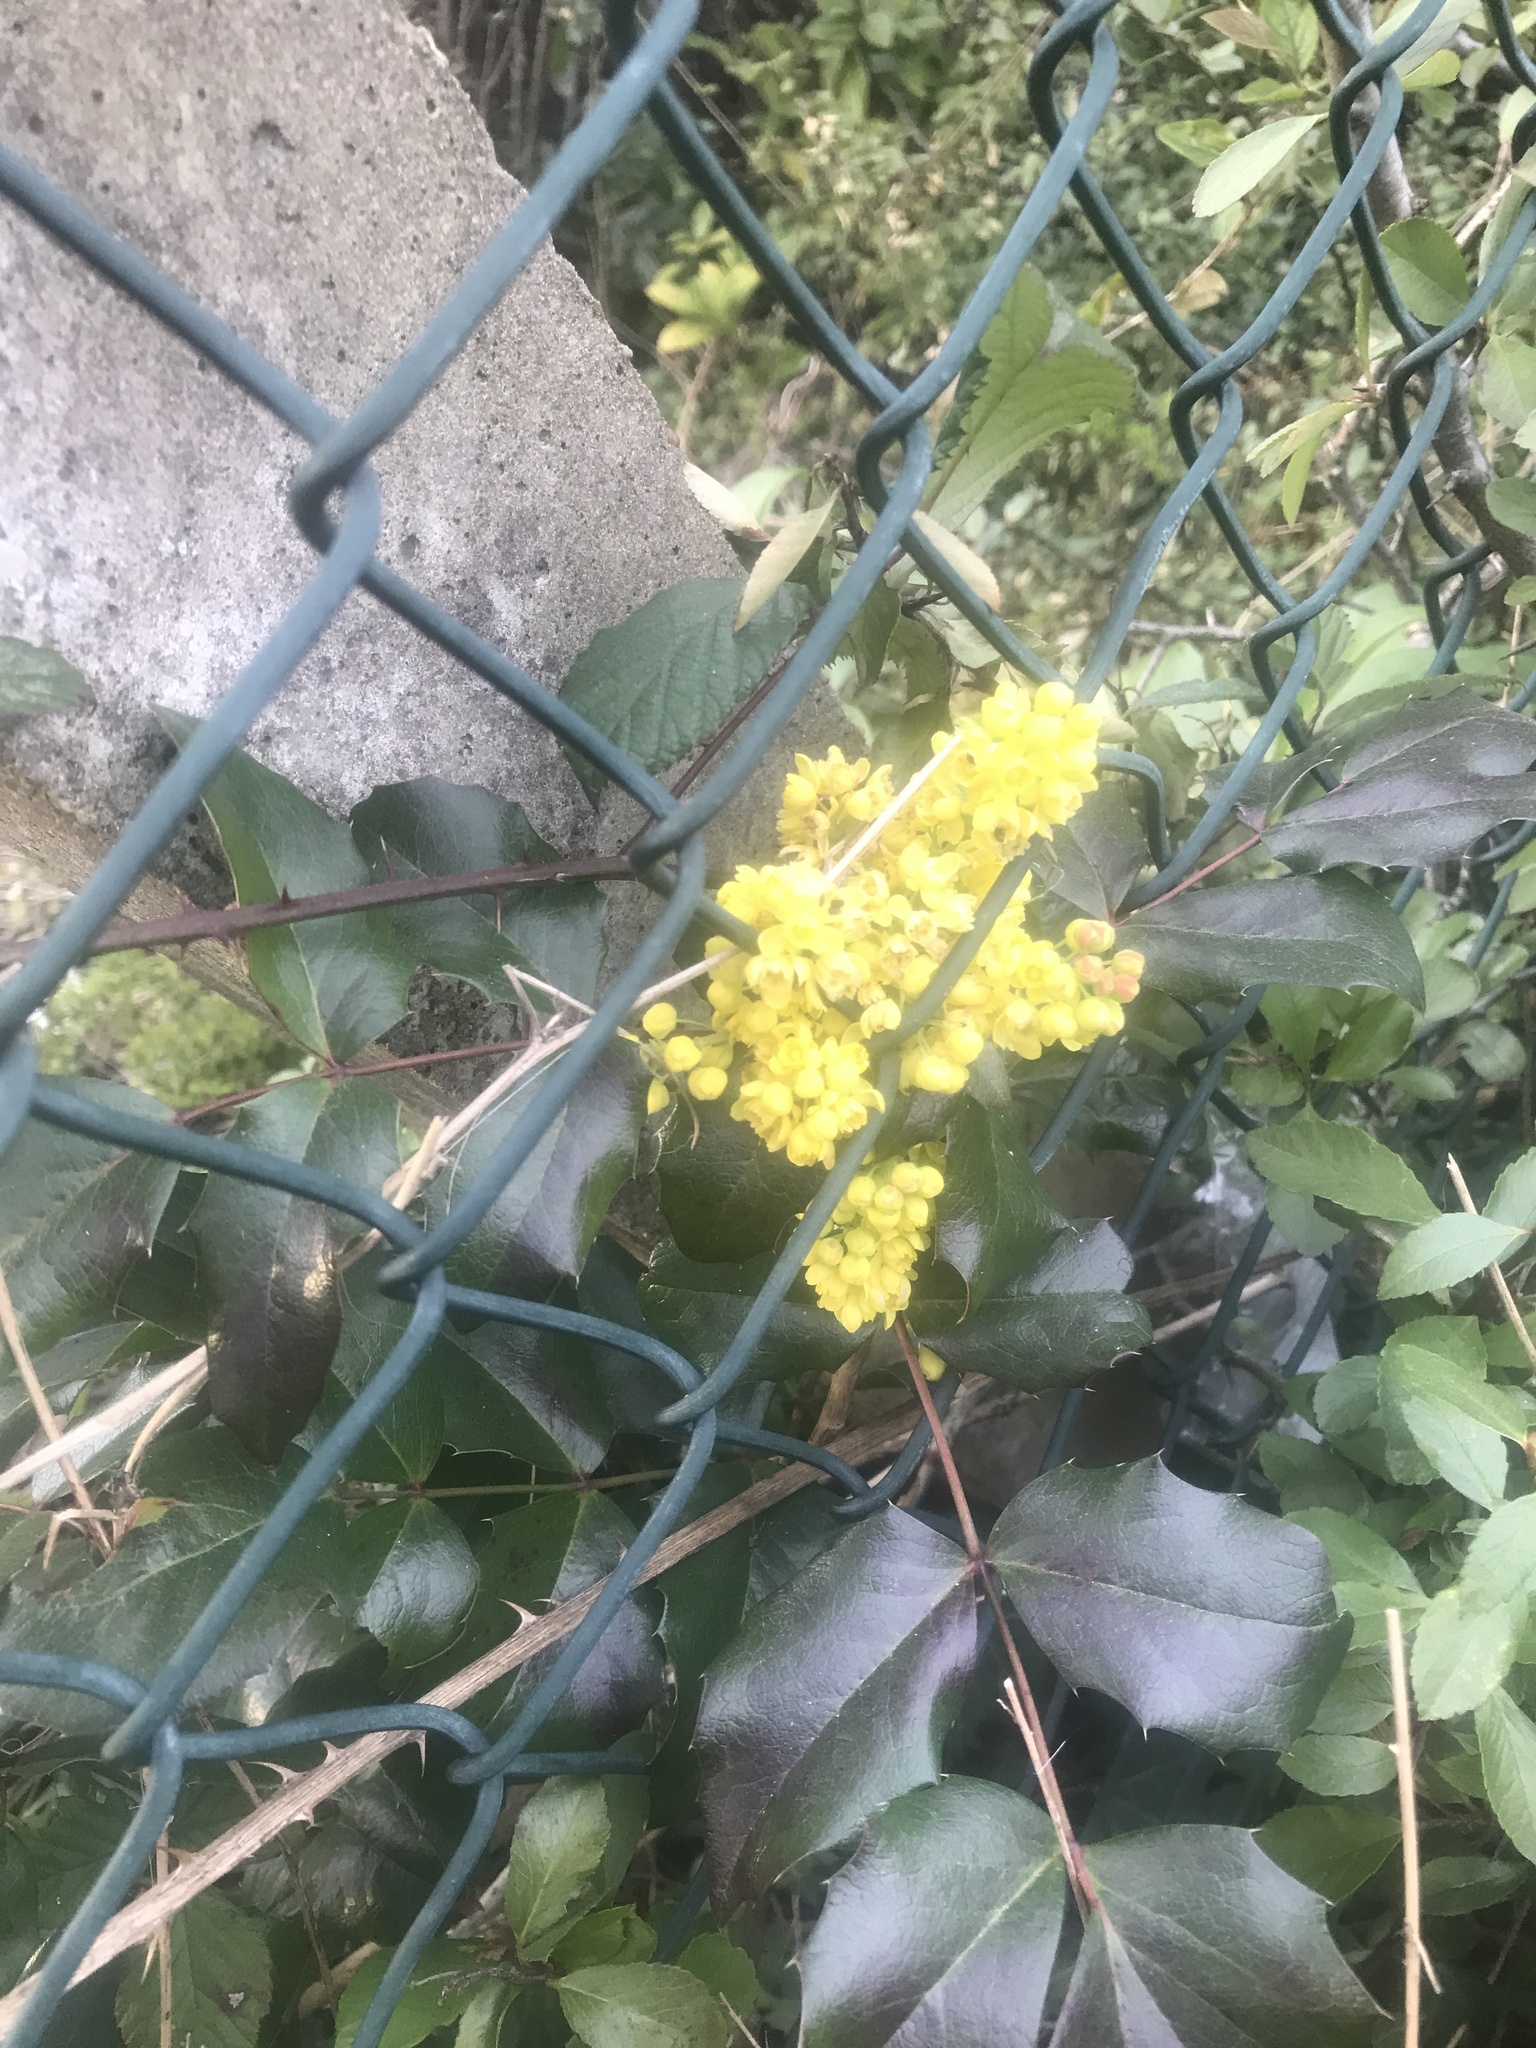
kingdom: Plantae
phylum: Tracheophyta
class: Magnoliopsida
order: Geraniales
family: Geraniaceae
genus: Geranium
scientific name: Geranium robertianum
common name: Herb-robert
